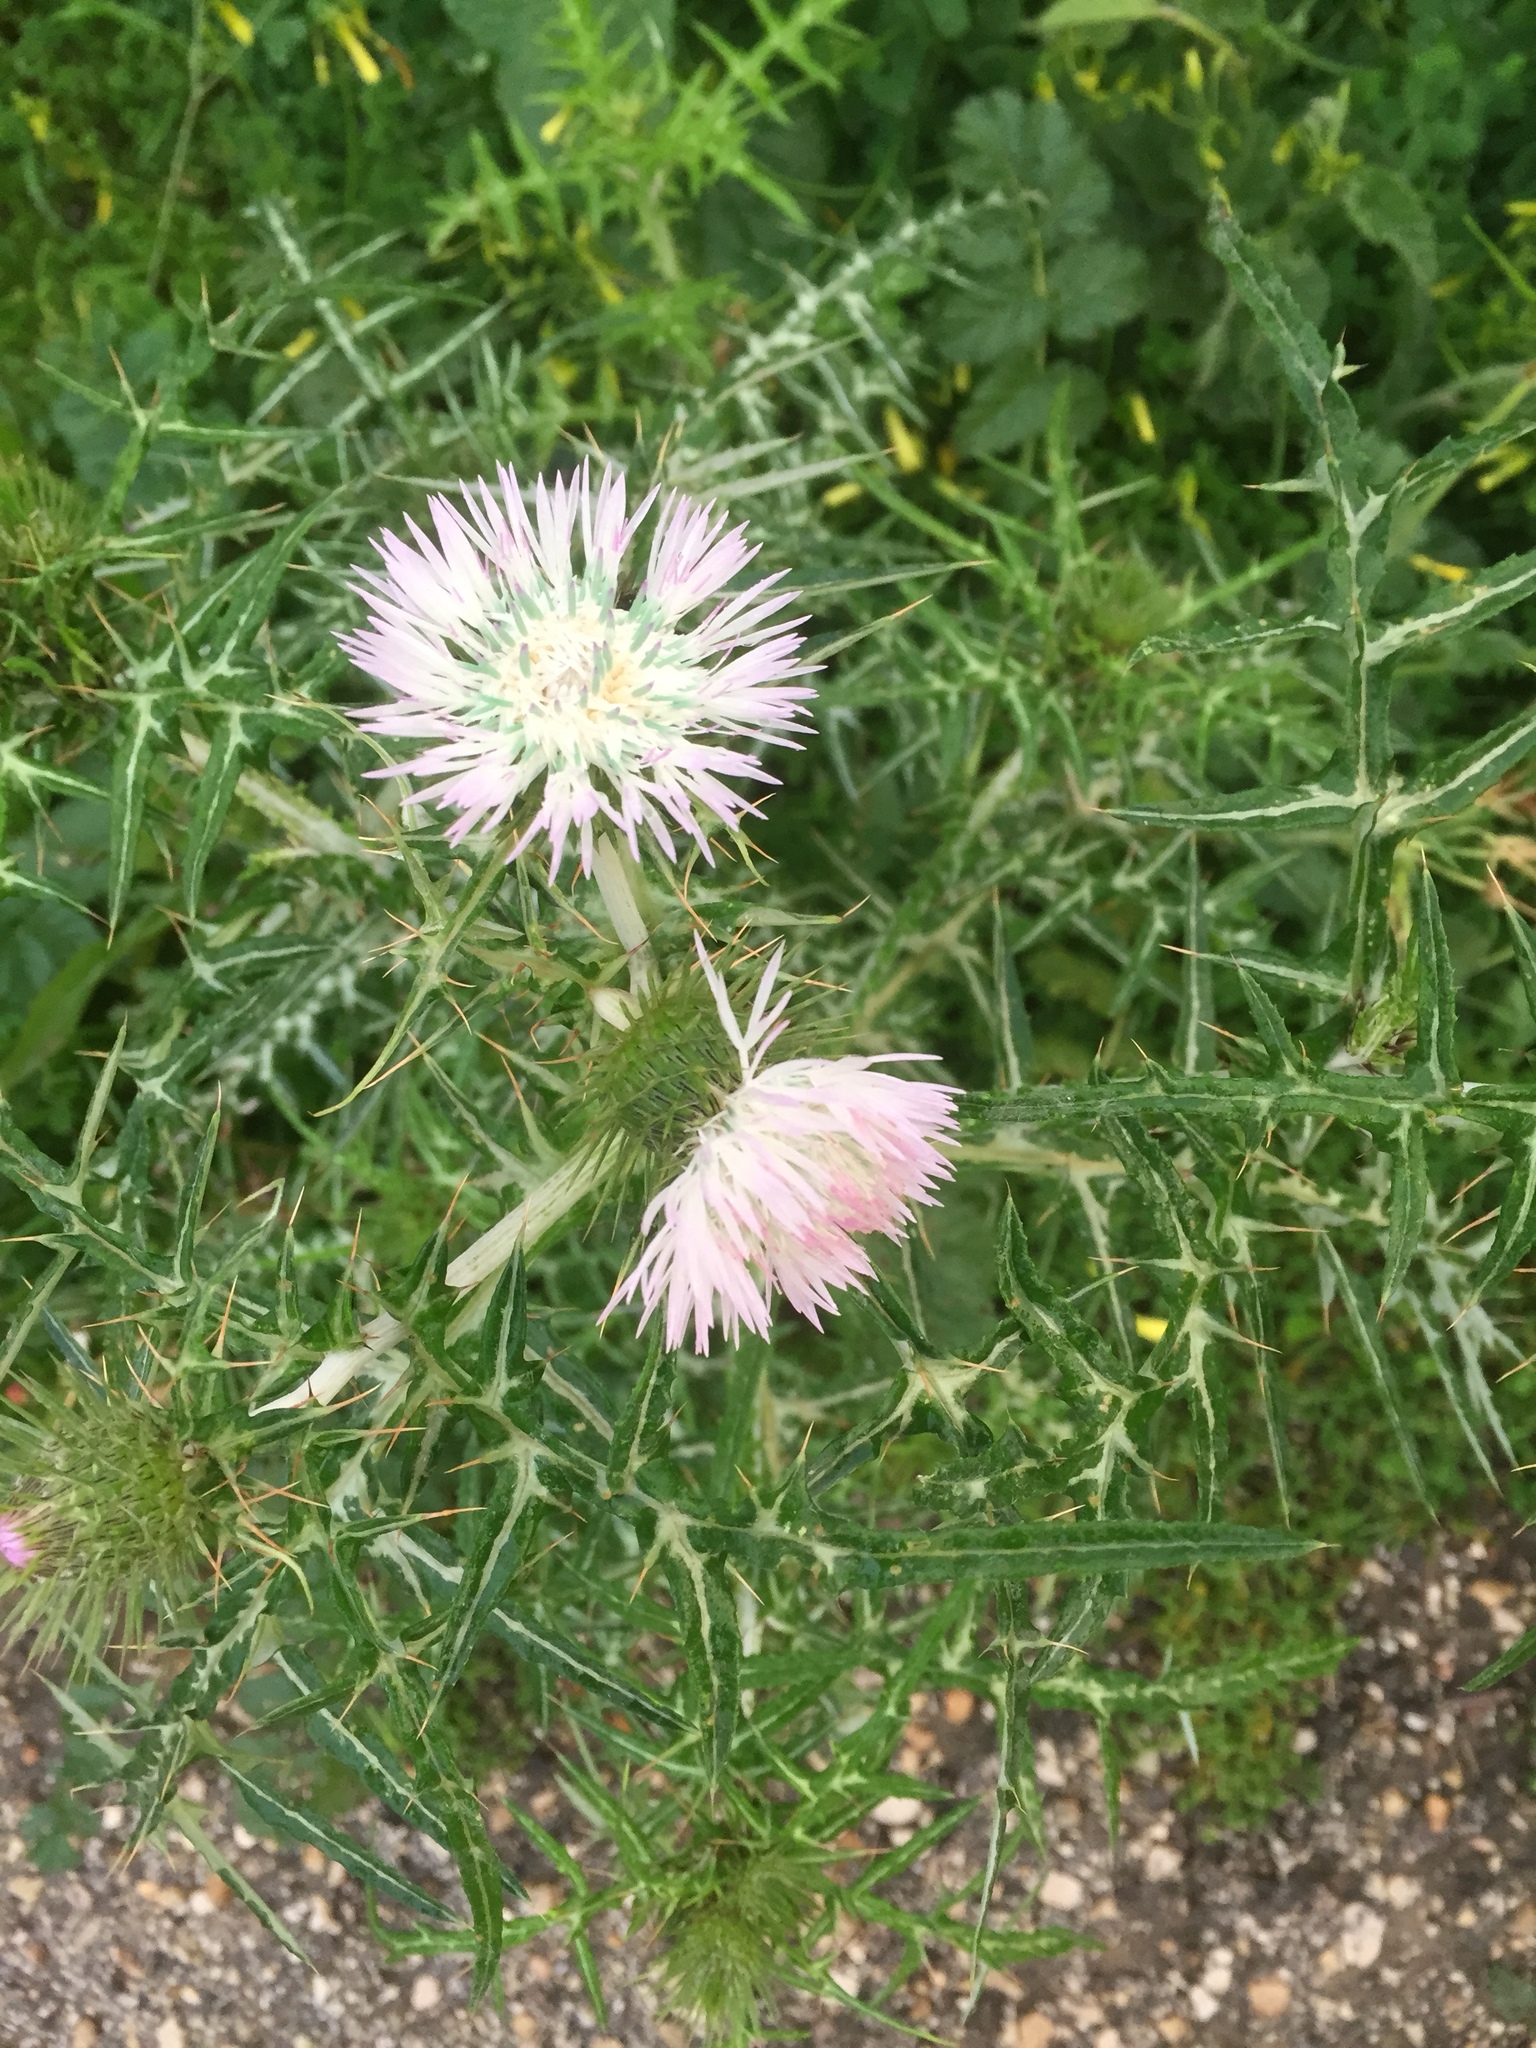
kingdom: Plantae
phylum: Tracheophyta
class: Magnoliopsida
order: Asterales
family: Asteraceae
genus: Galactites
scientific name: Galactites tomentosa
